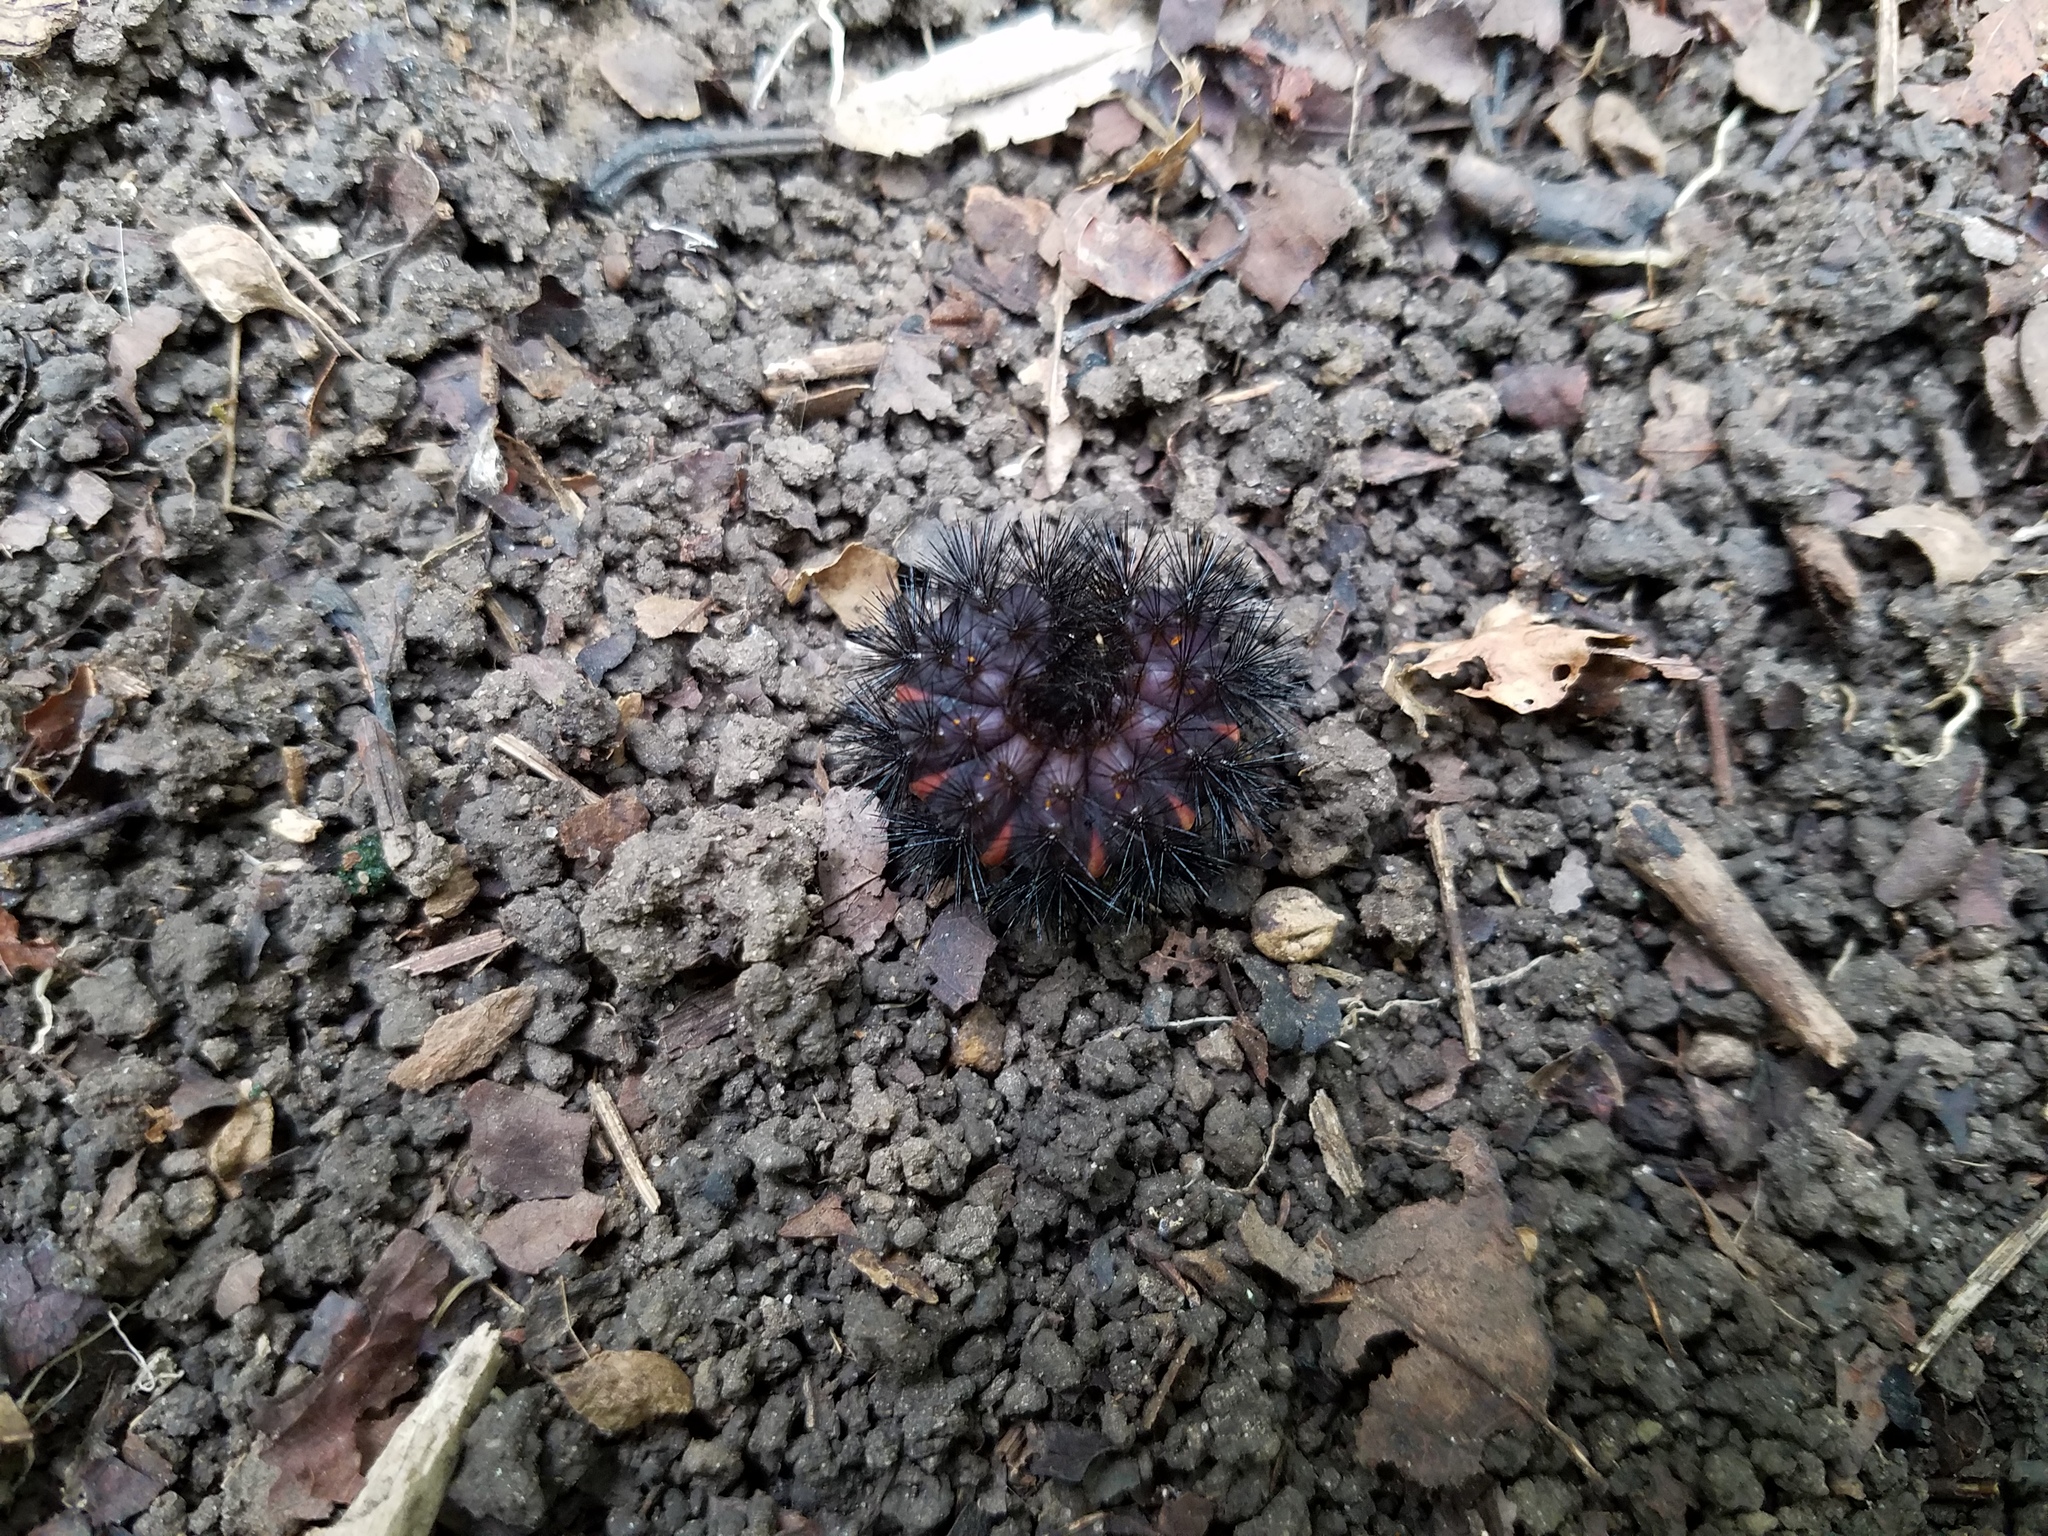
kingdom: Animalia
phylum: Arthropoda
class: Insecta
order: Lepidoptera
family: Erebidae
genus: Hypercompe
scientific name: Hypercompe scribonia
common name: Giant leopard moth
